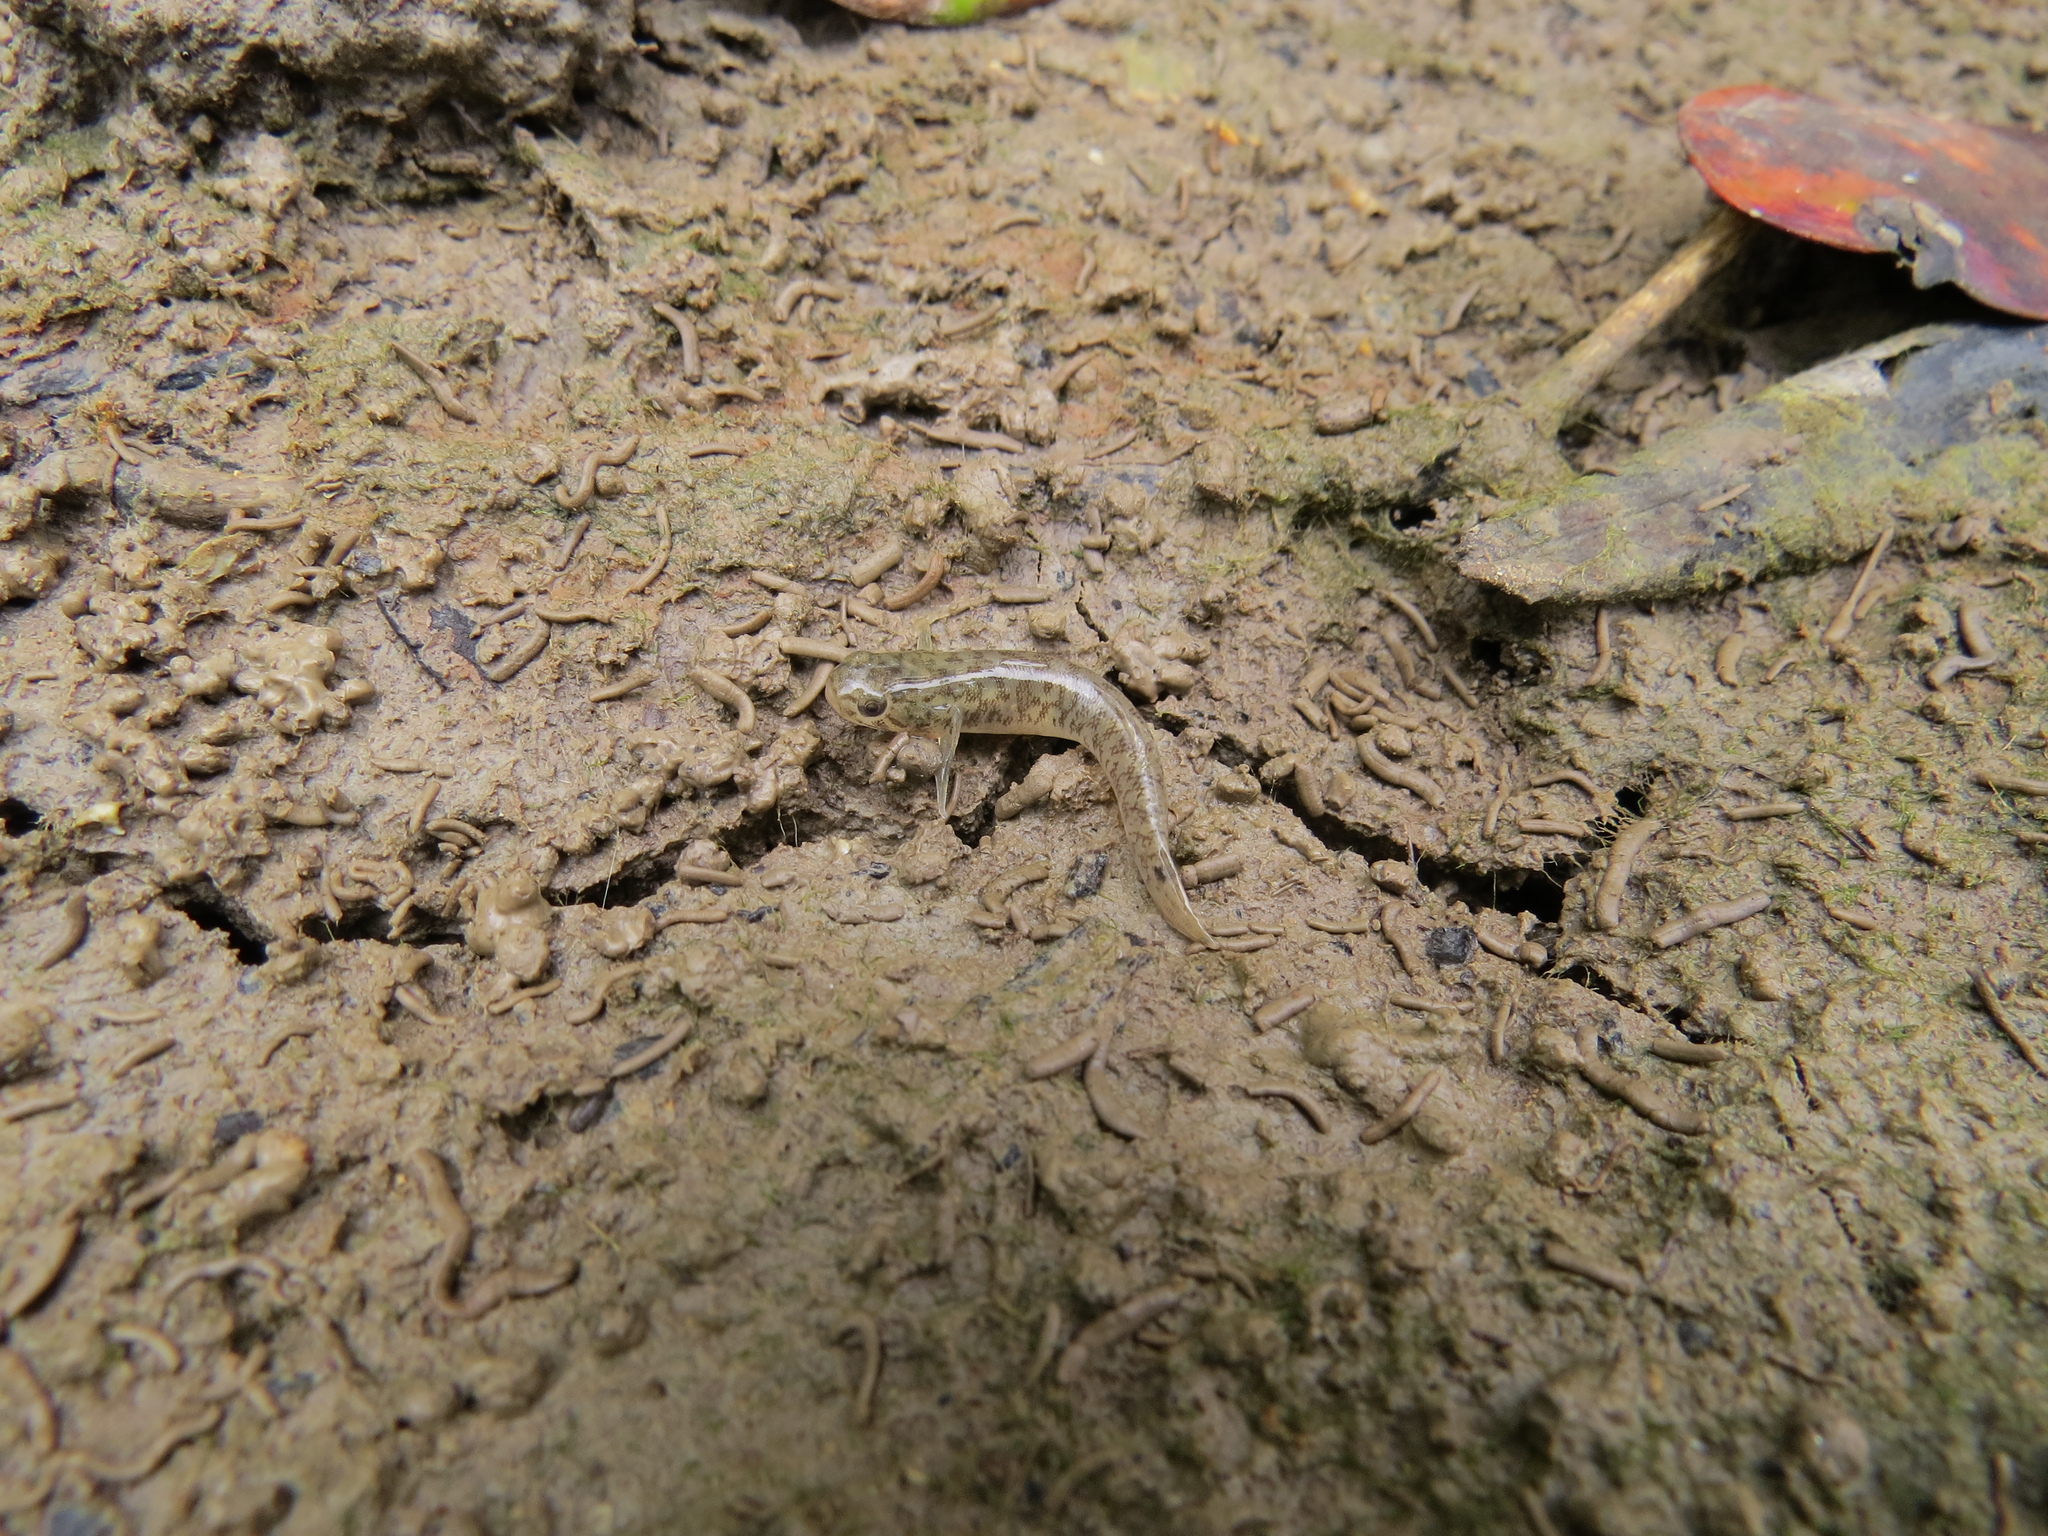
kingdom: Animalia
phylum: Chordata
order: Perciformes
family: Gobiidae
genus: Wuhanlinigobius
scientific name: Wuhanlinigobius polylepis
